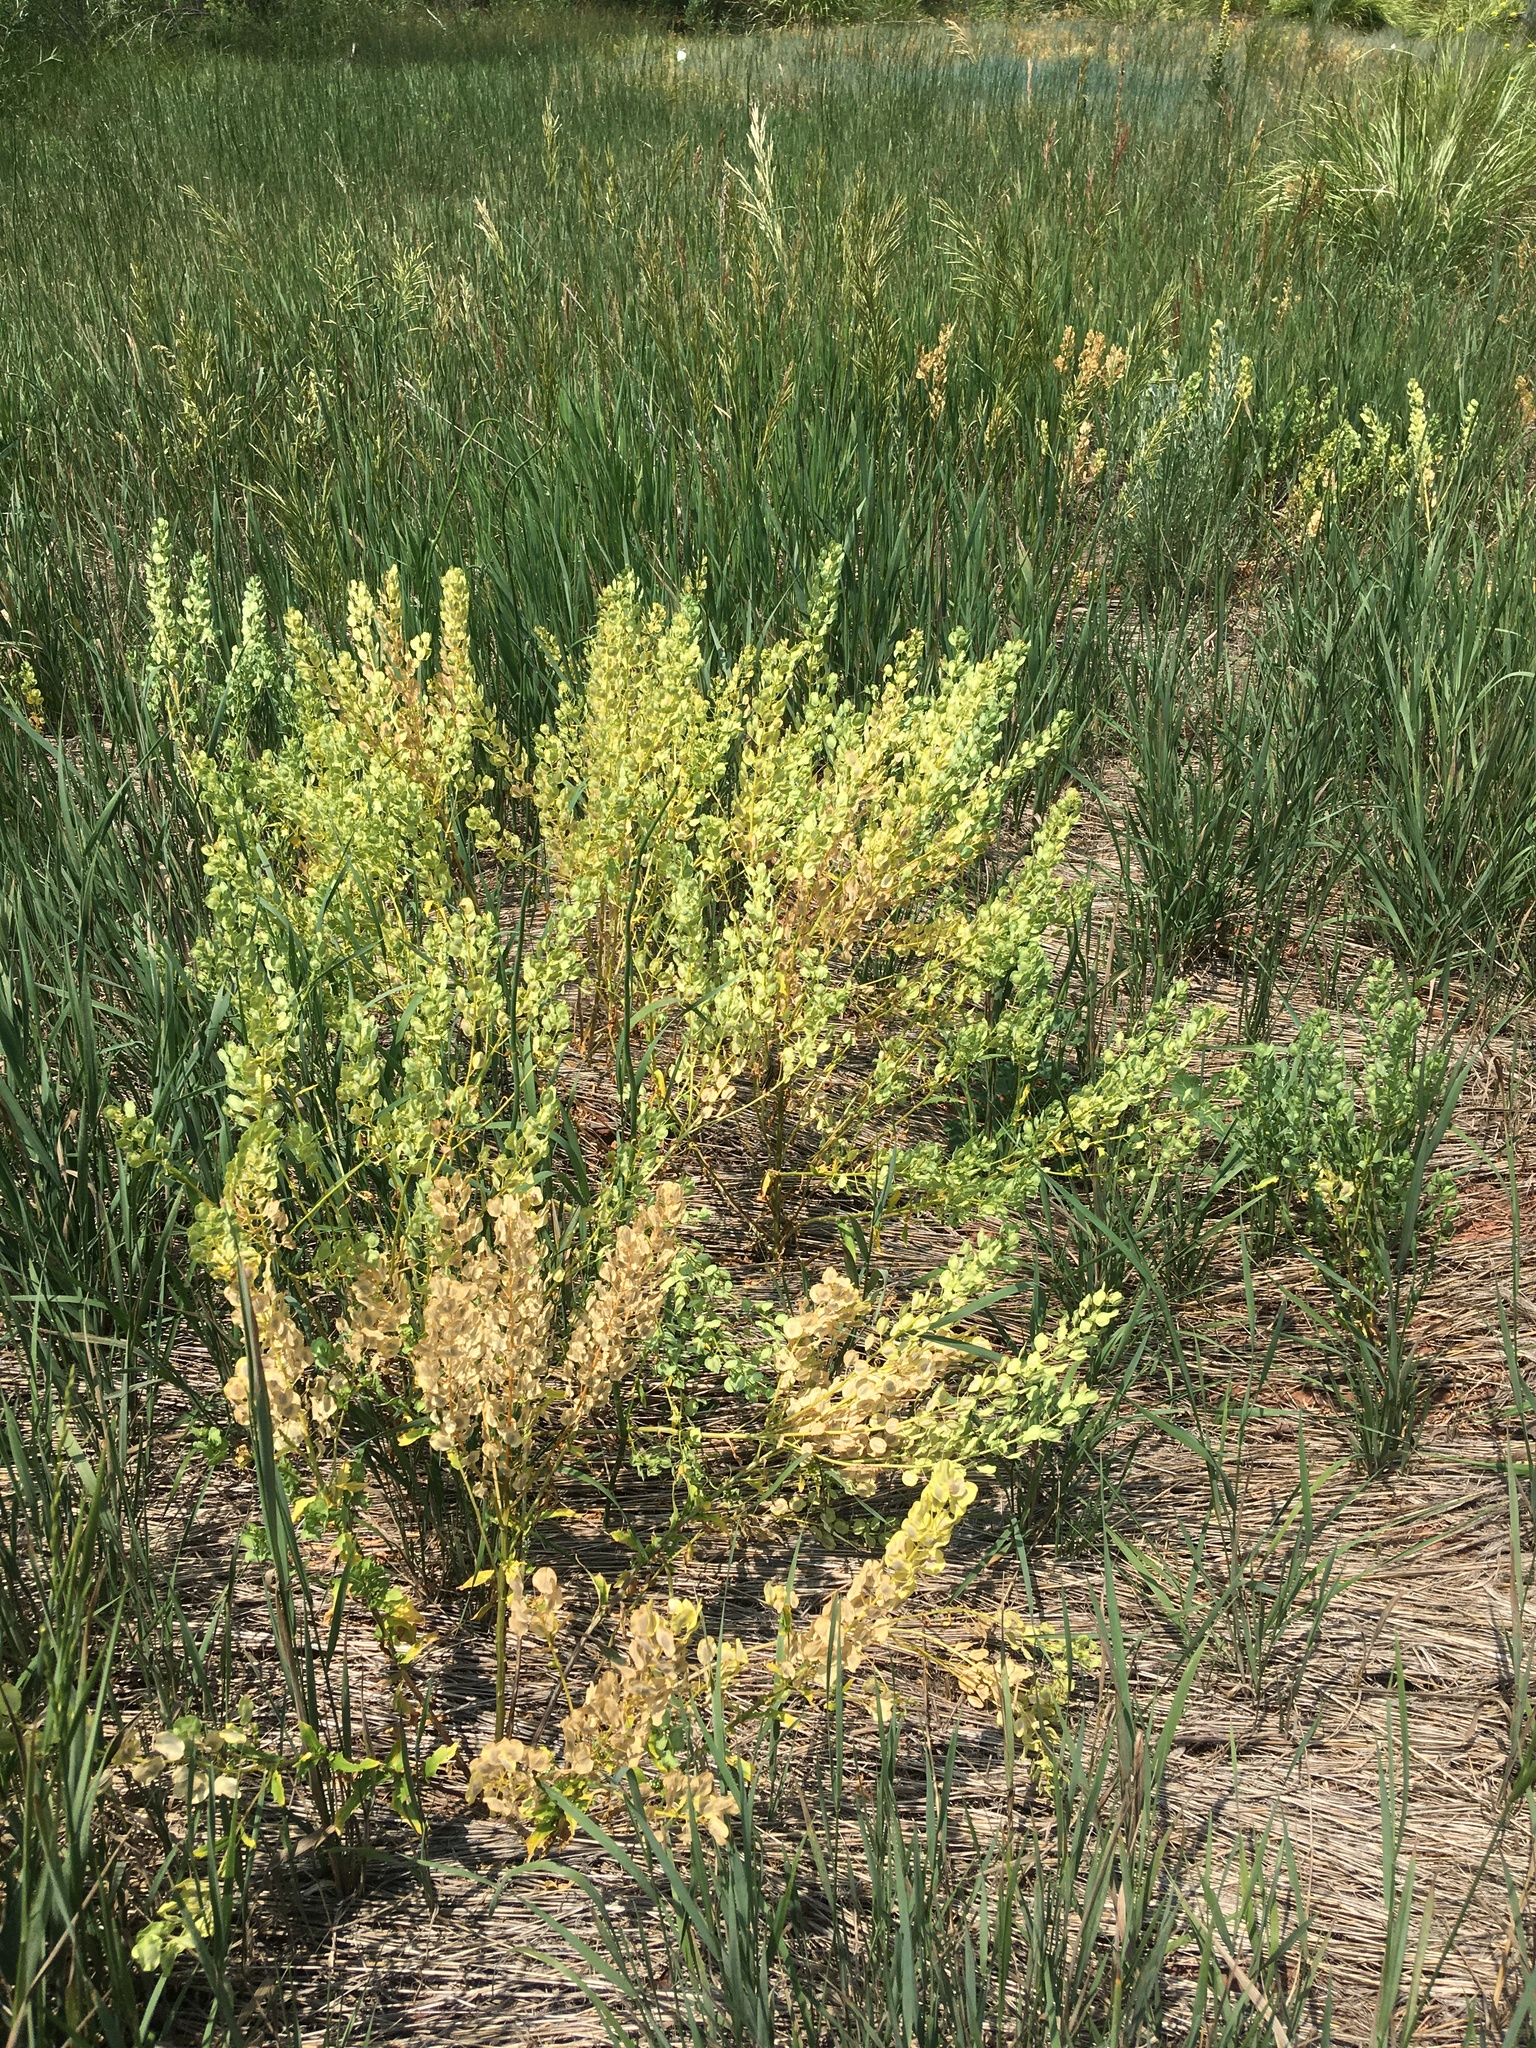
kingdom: Plantae
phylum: Tracheophyta
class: Magnoliopsida
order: Brassicales
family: Brassicaceae
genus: Thlaspi
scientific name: Thlaspi arvense
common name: Field pennycress
